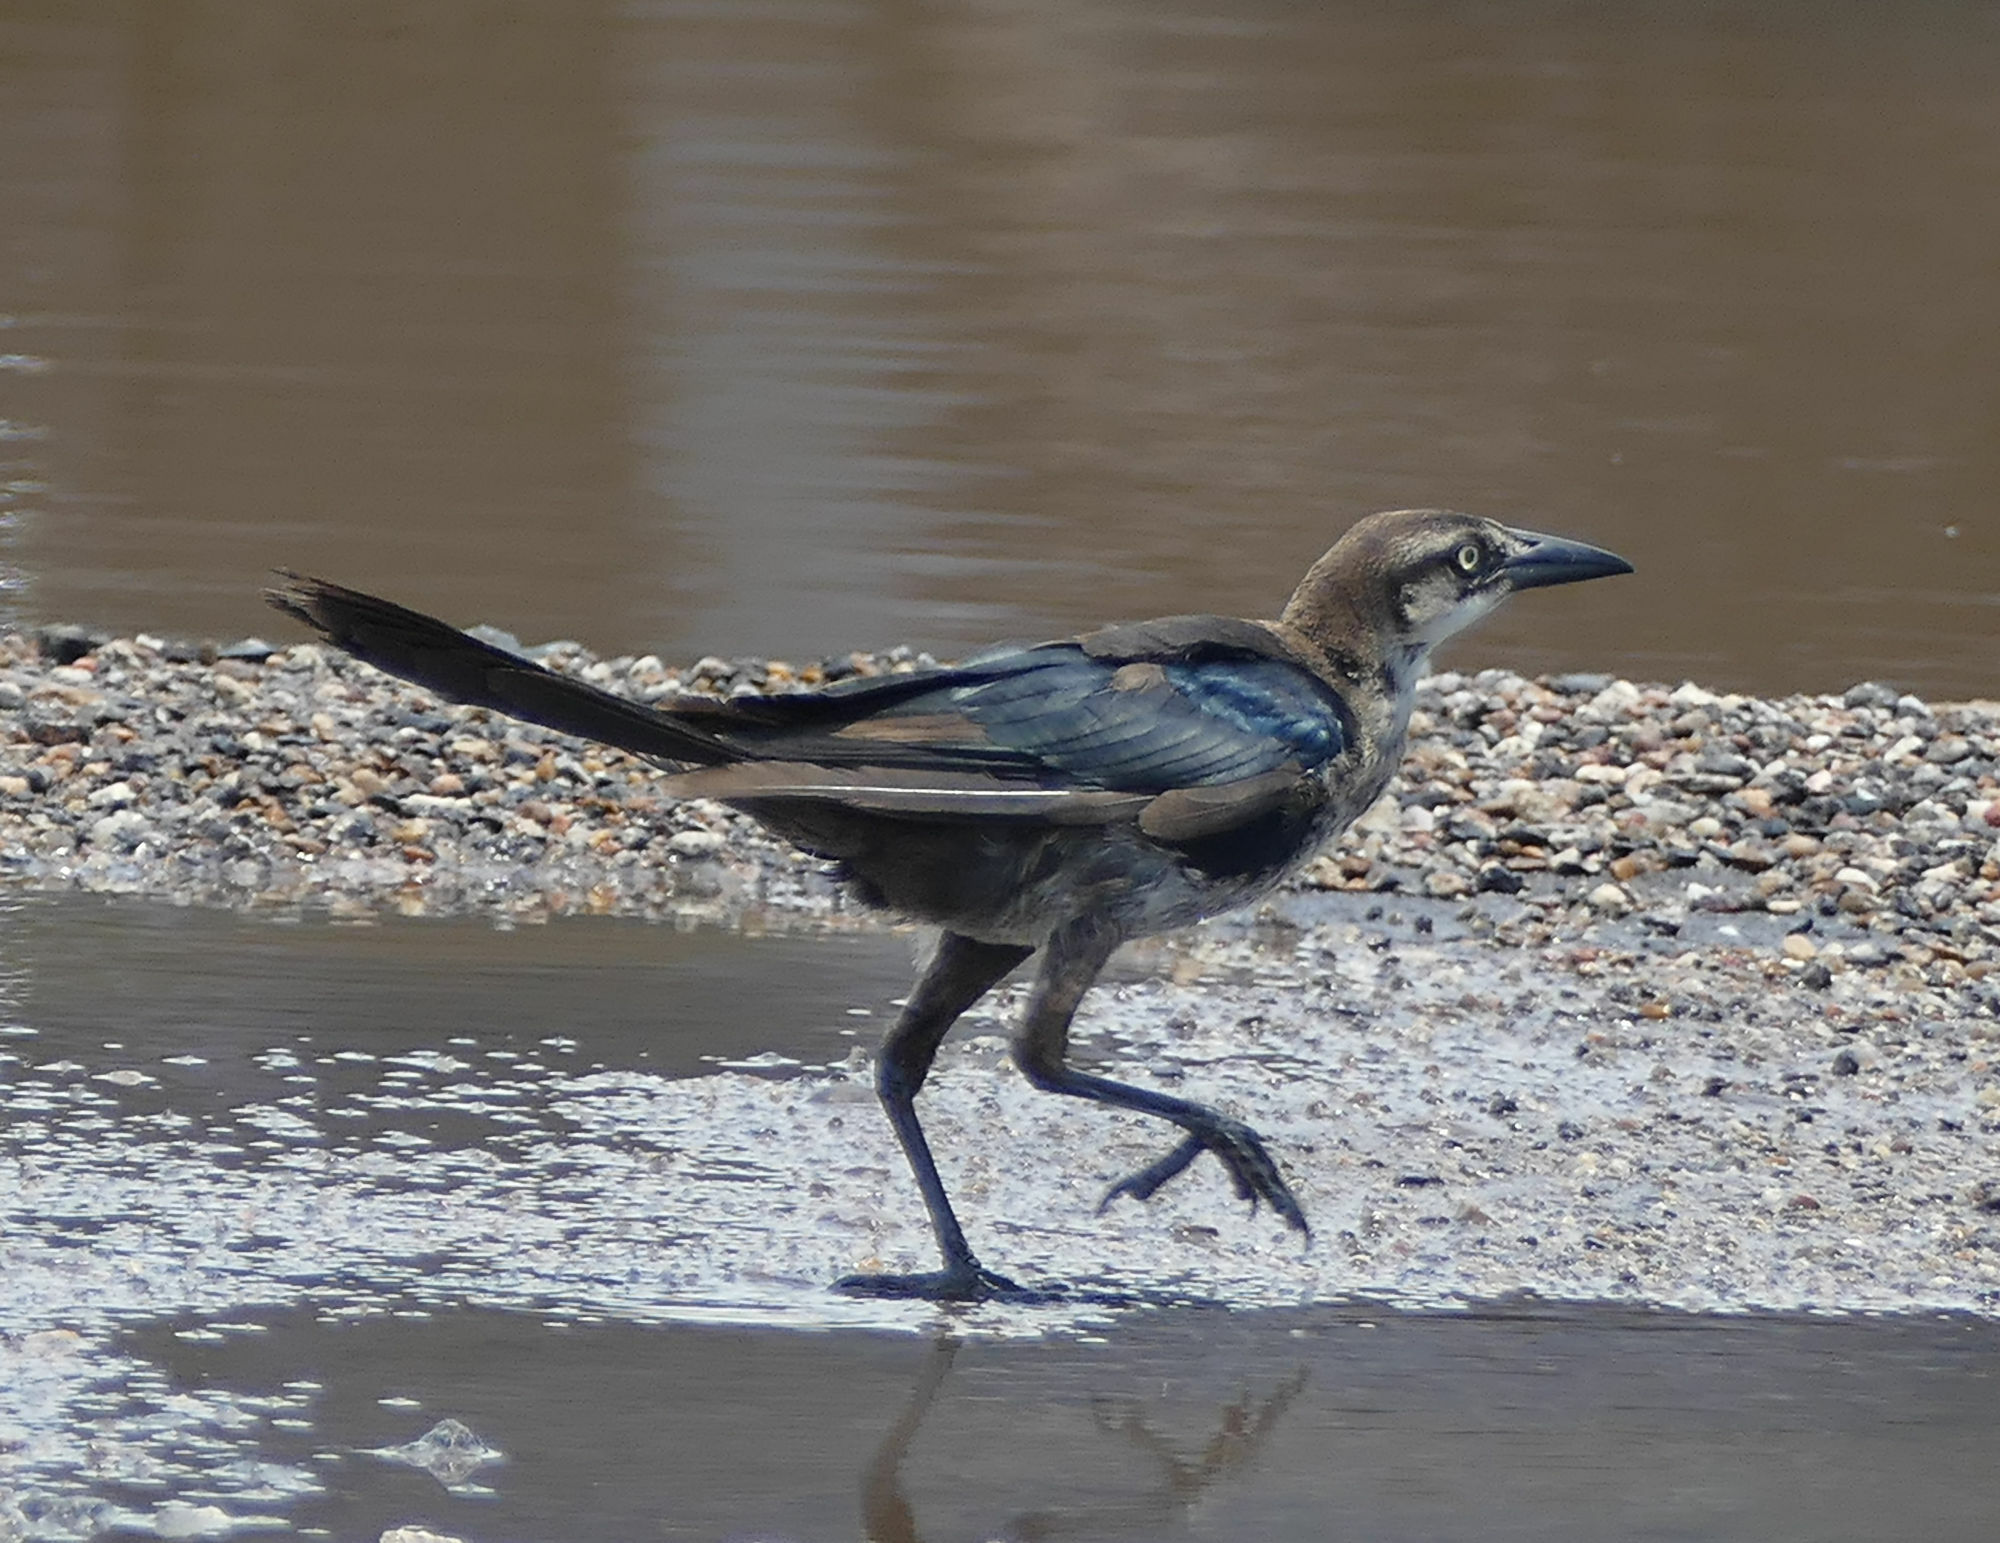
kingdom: Animalia
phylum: Chordata
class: Aves
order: Passeriformes
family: Icteridae
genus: Quiscalus
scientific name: Quiscalus mexicanus
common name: Great-tailed grackle
